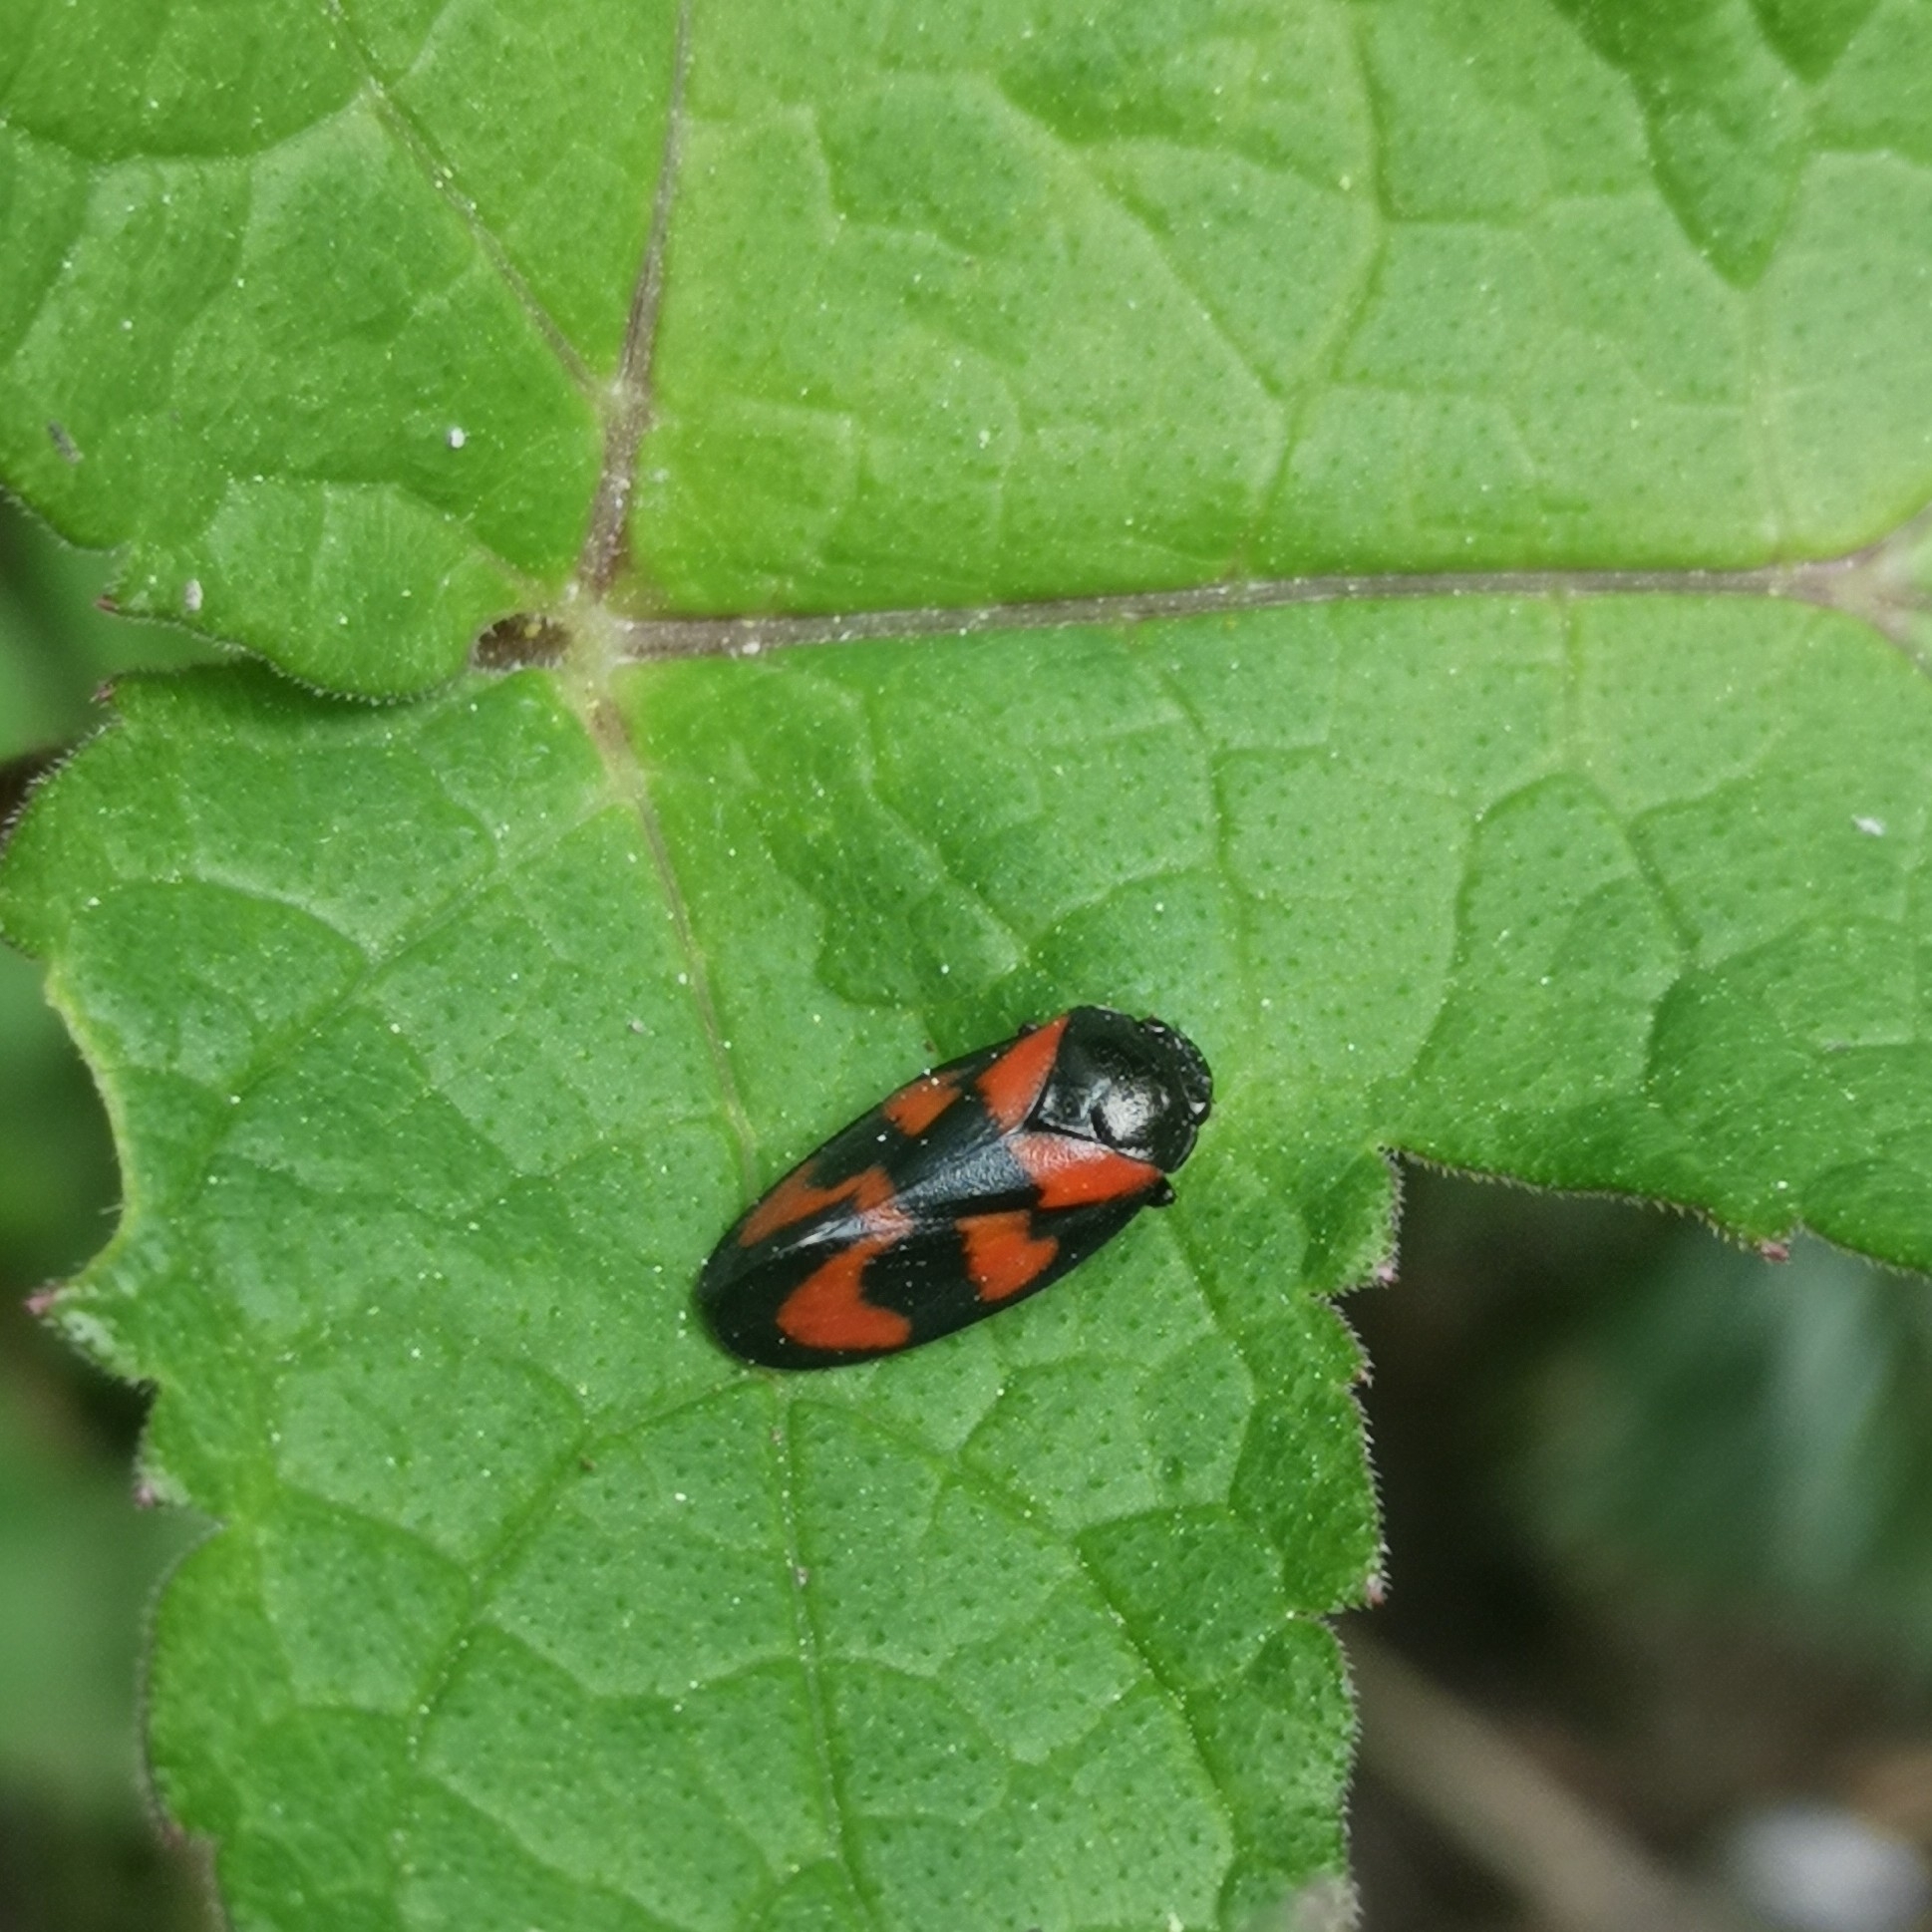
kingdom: Animalia
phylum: Arthropoda
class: Insecta
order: Hemiptera
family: Cercopidae
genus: Cercopis
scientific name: Cercopis vulnerata
